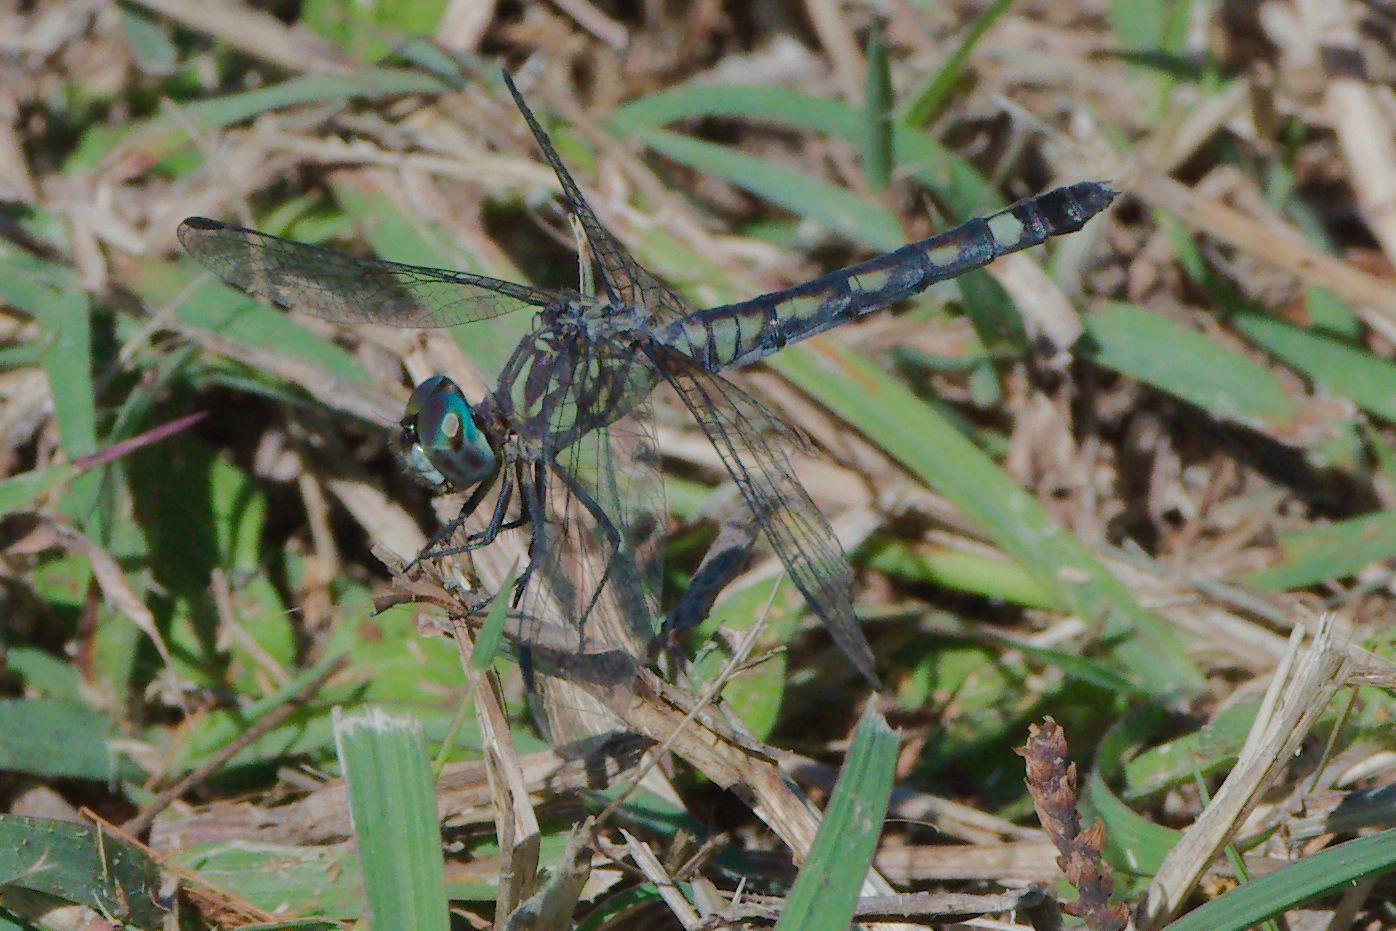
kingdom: Animalia
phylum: Arthropoda
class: Insecta
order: Odonata
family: Libellulidae
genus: Micrathyria
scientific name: Micrathyria hagenii
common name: Thornbush dasher
